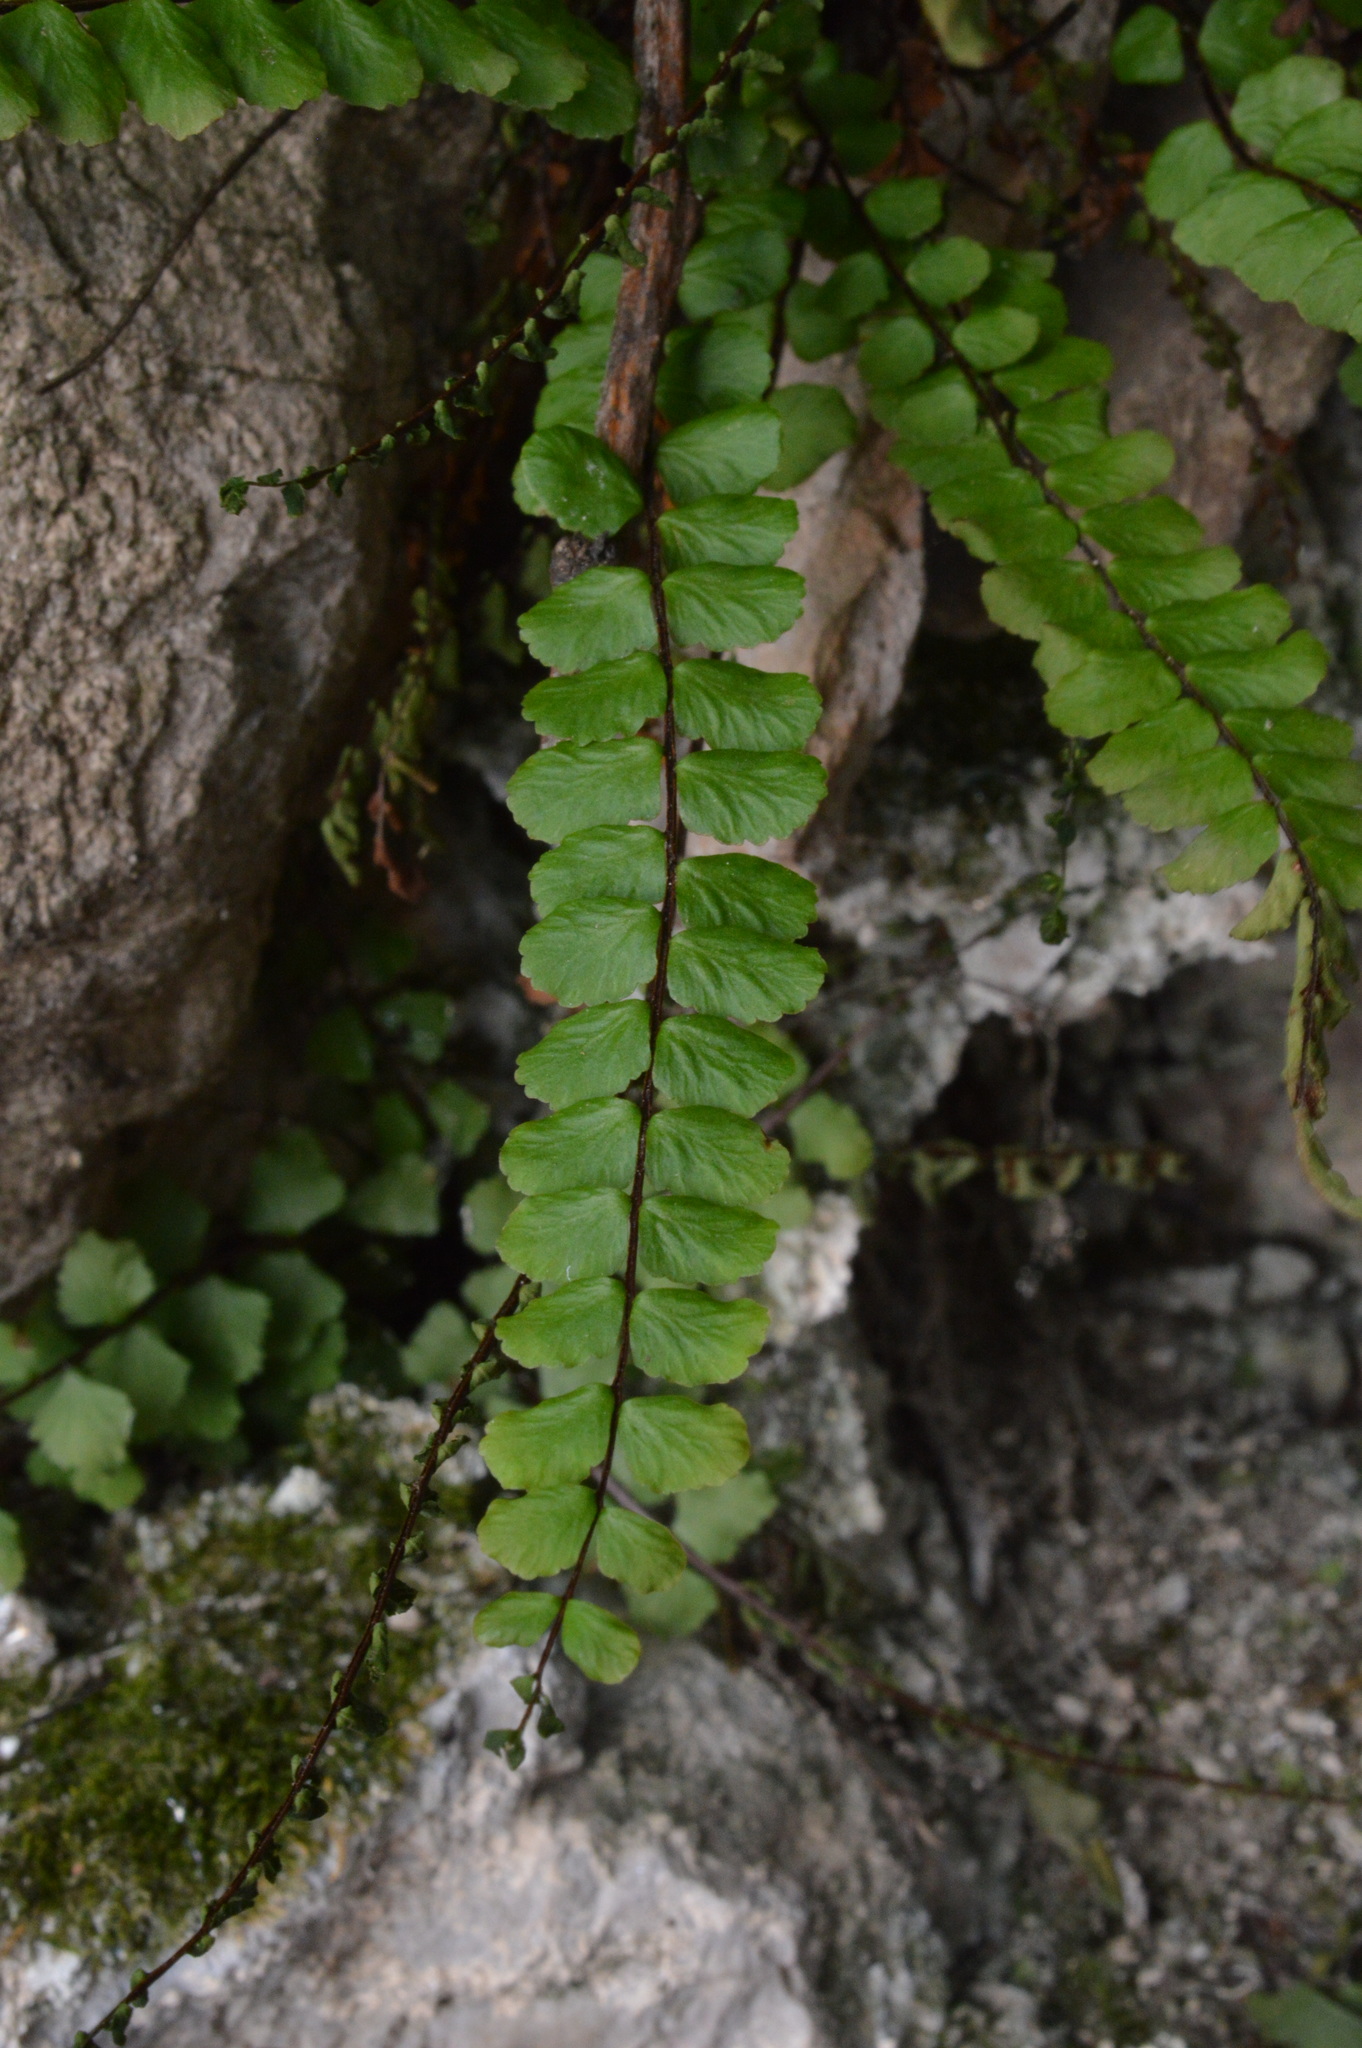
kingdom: Plantae
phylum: Tracheophyta
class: Polypodiopsida
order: Polypodiales
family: Aspleniaceae
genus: Asplenium
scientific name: Asplenium trichomanes
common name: Maidenhair spleenwort
